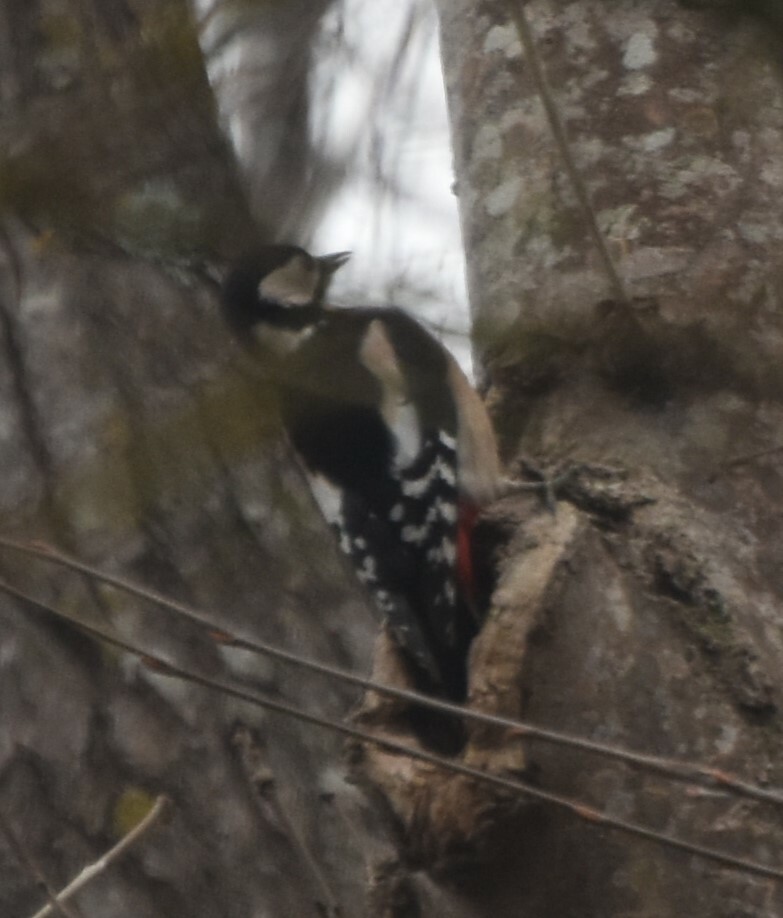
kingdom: Animalia
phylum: Chordata
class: Aves
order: Piciformes
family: Picidae
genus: Dendrocopos
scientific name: Dendrocopos major
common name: Great spotted woodpecker
